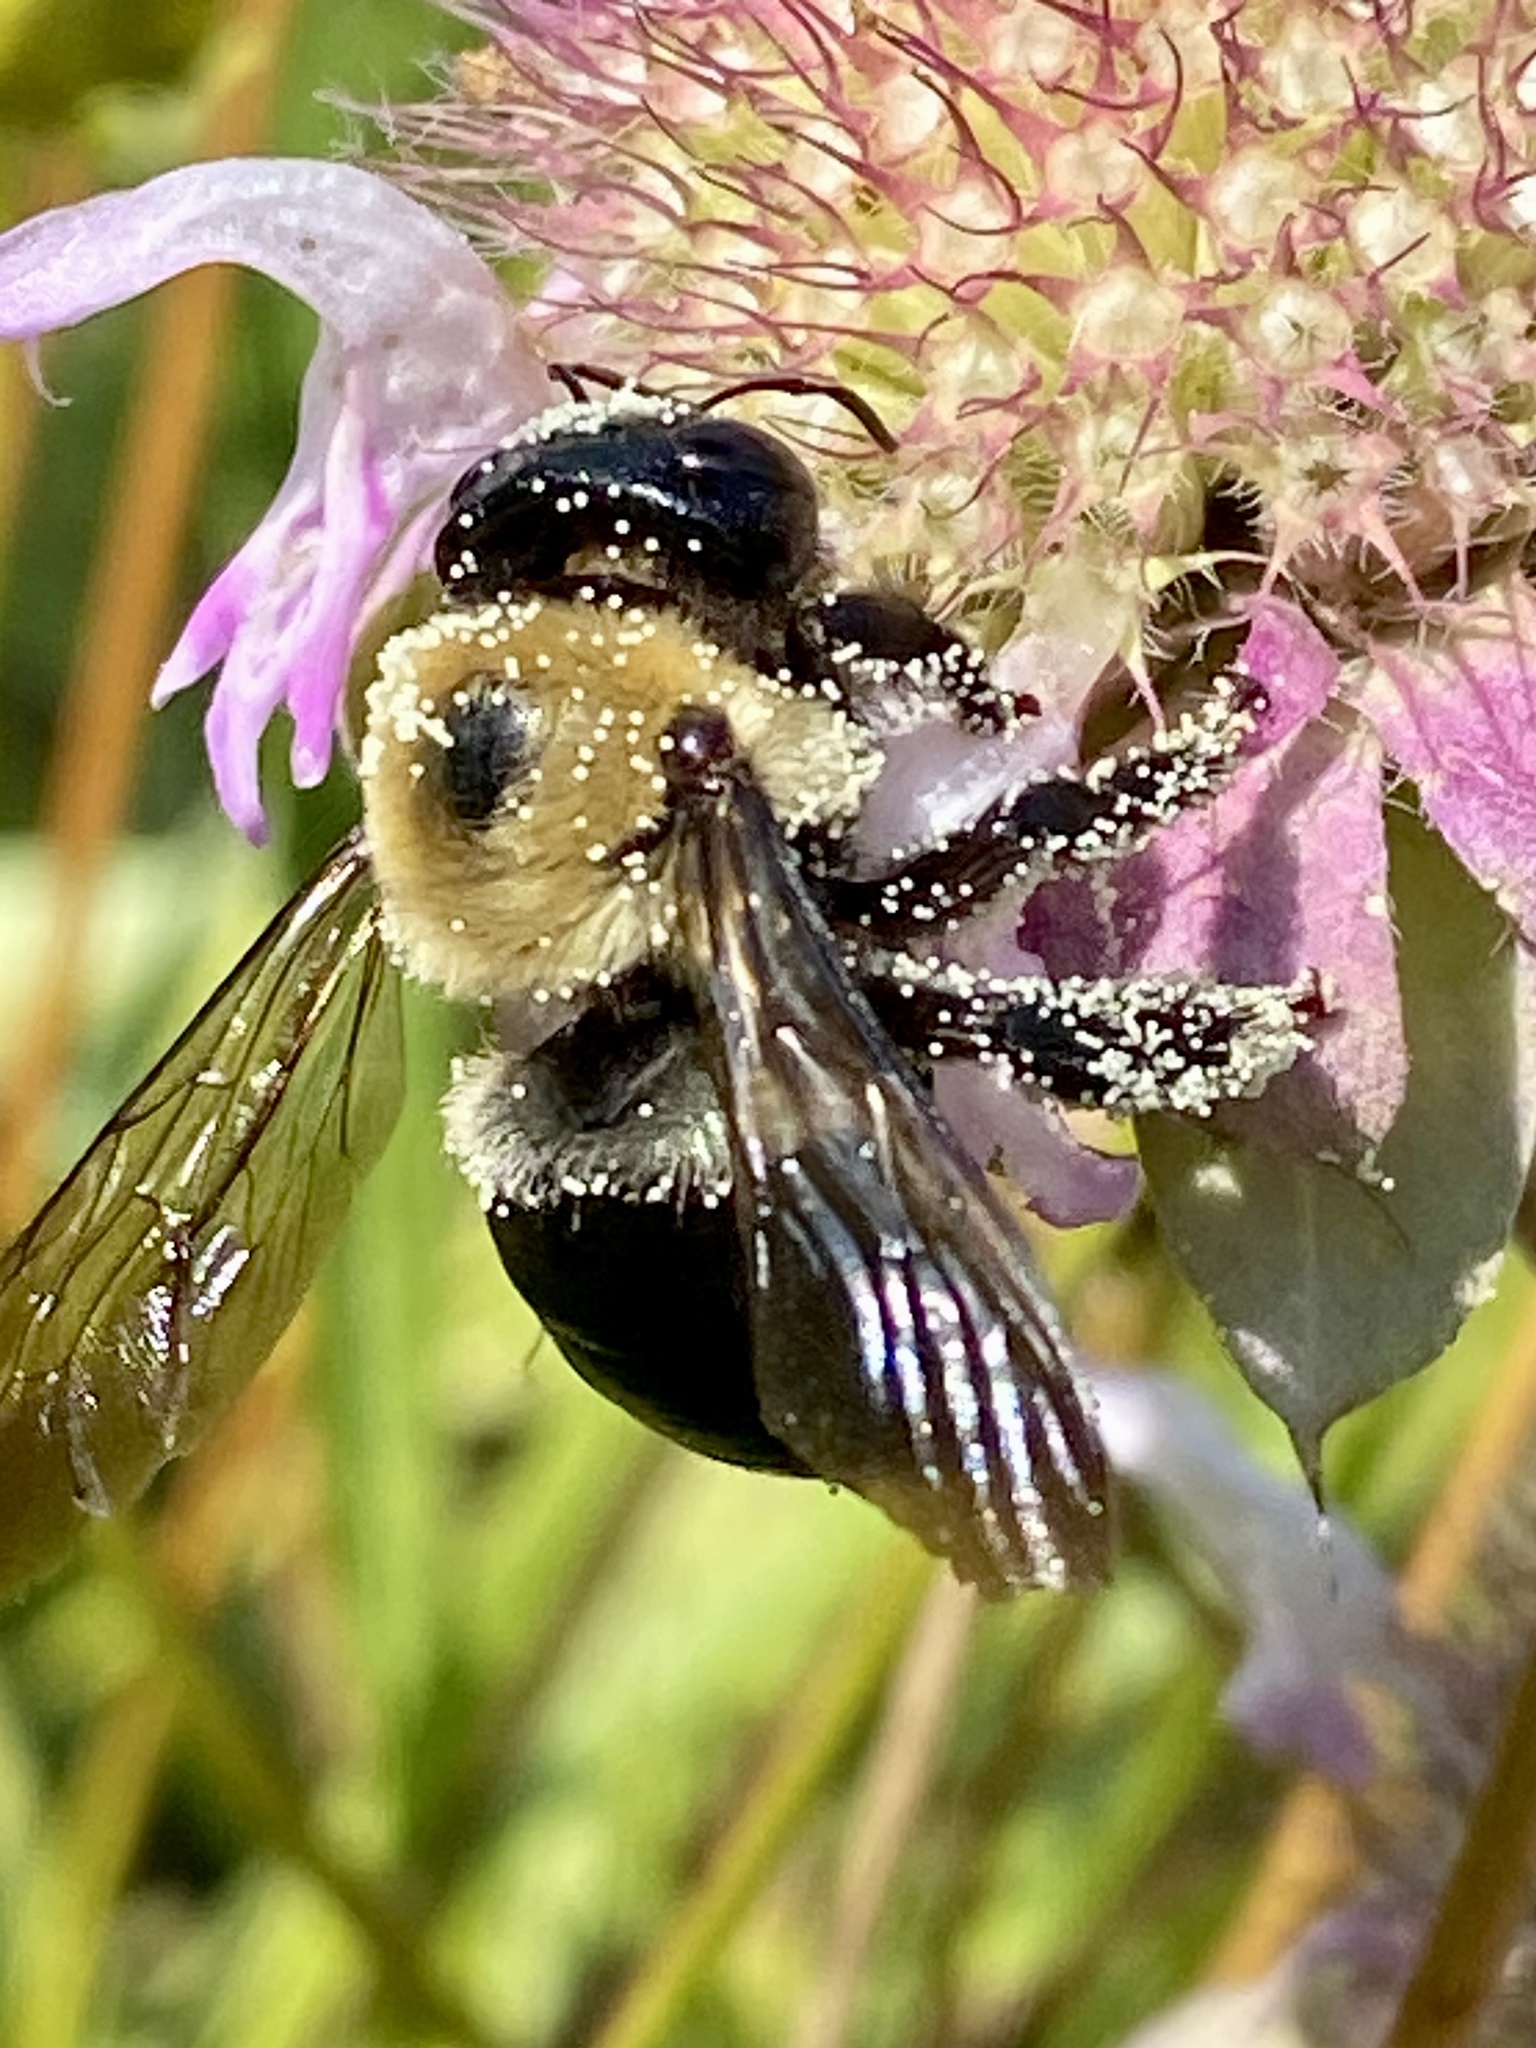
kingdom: Animalia
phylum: Arthropoda
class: Insecta
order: Hymenoptera
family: Apidae
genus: Xylocopa
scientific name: Xylocopa virginica
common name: Carpenter bee
